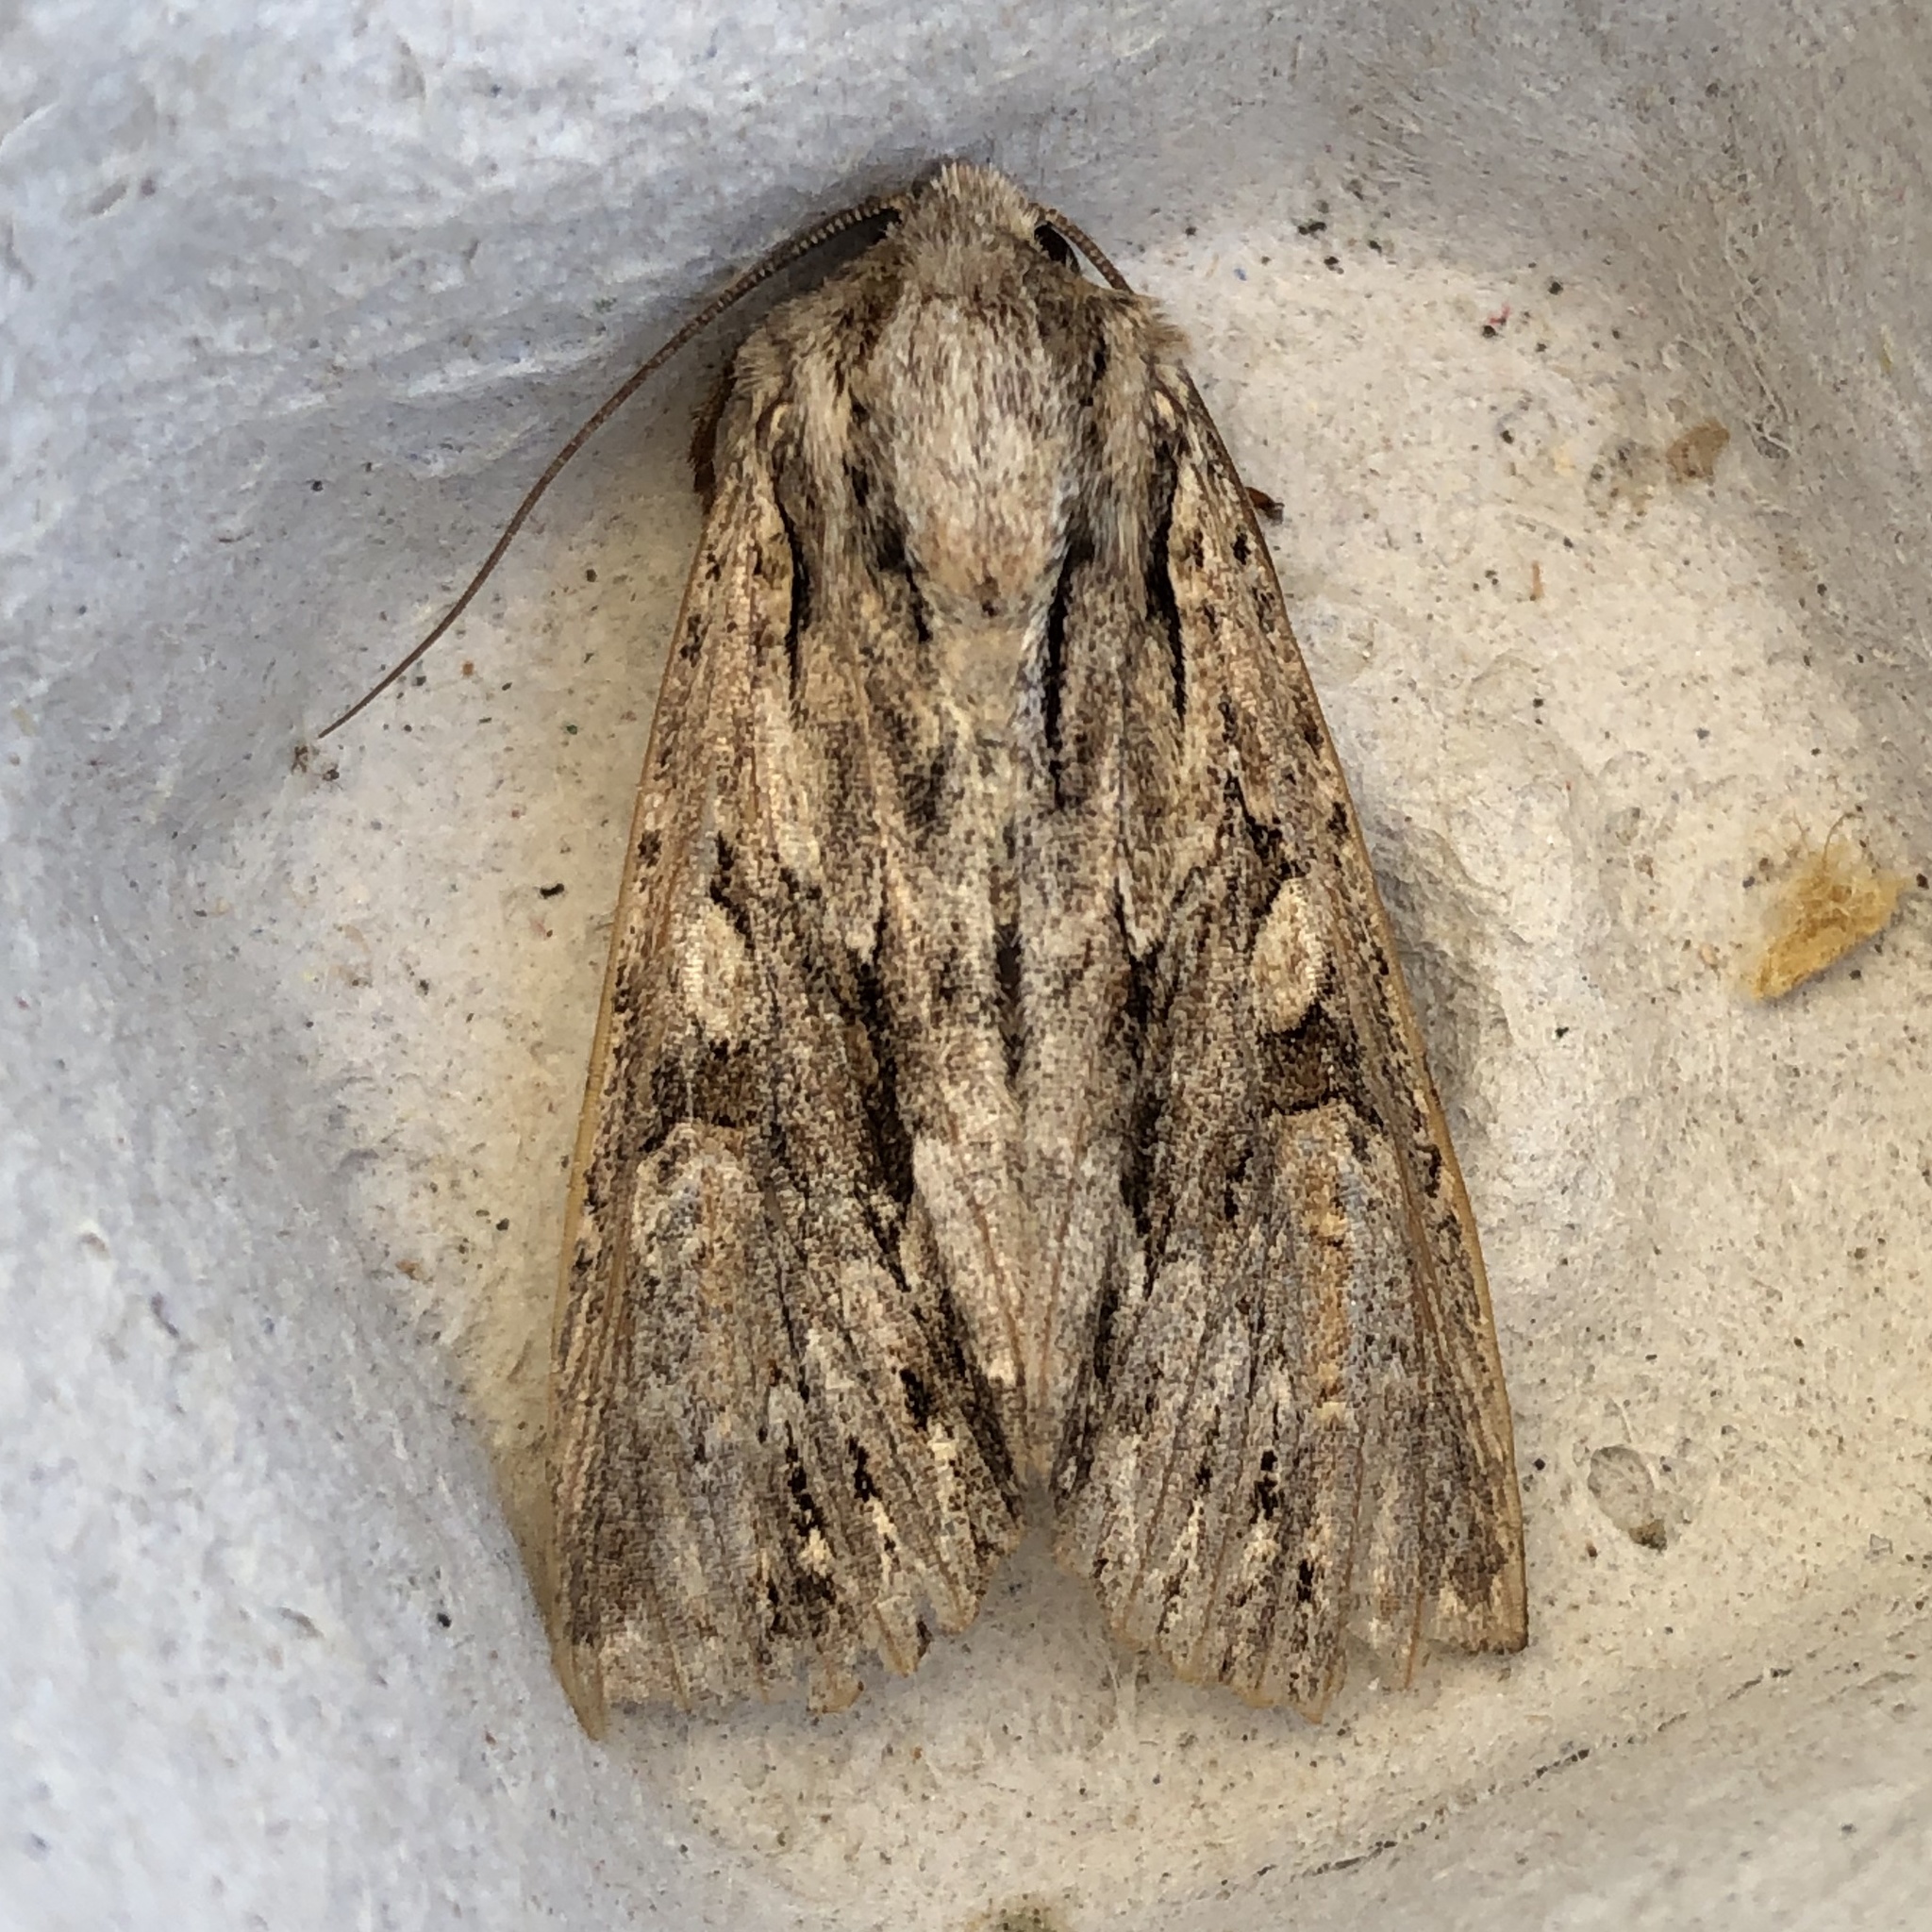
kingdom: Animalia
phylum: Arthropoda
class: Insecta
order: Lepidoptera
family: Noctuidae
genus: Apamea
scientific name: Apamea monoglypha
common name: Dark arches
